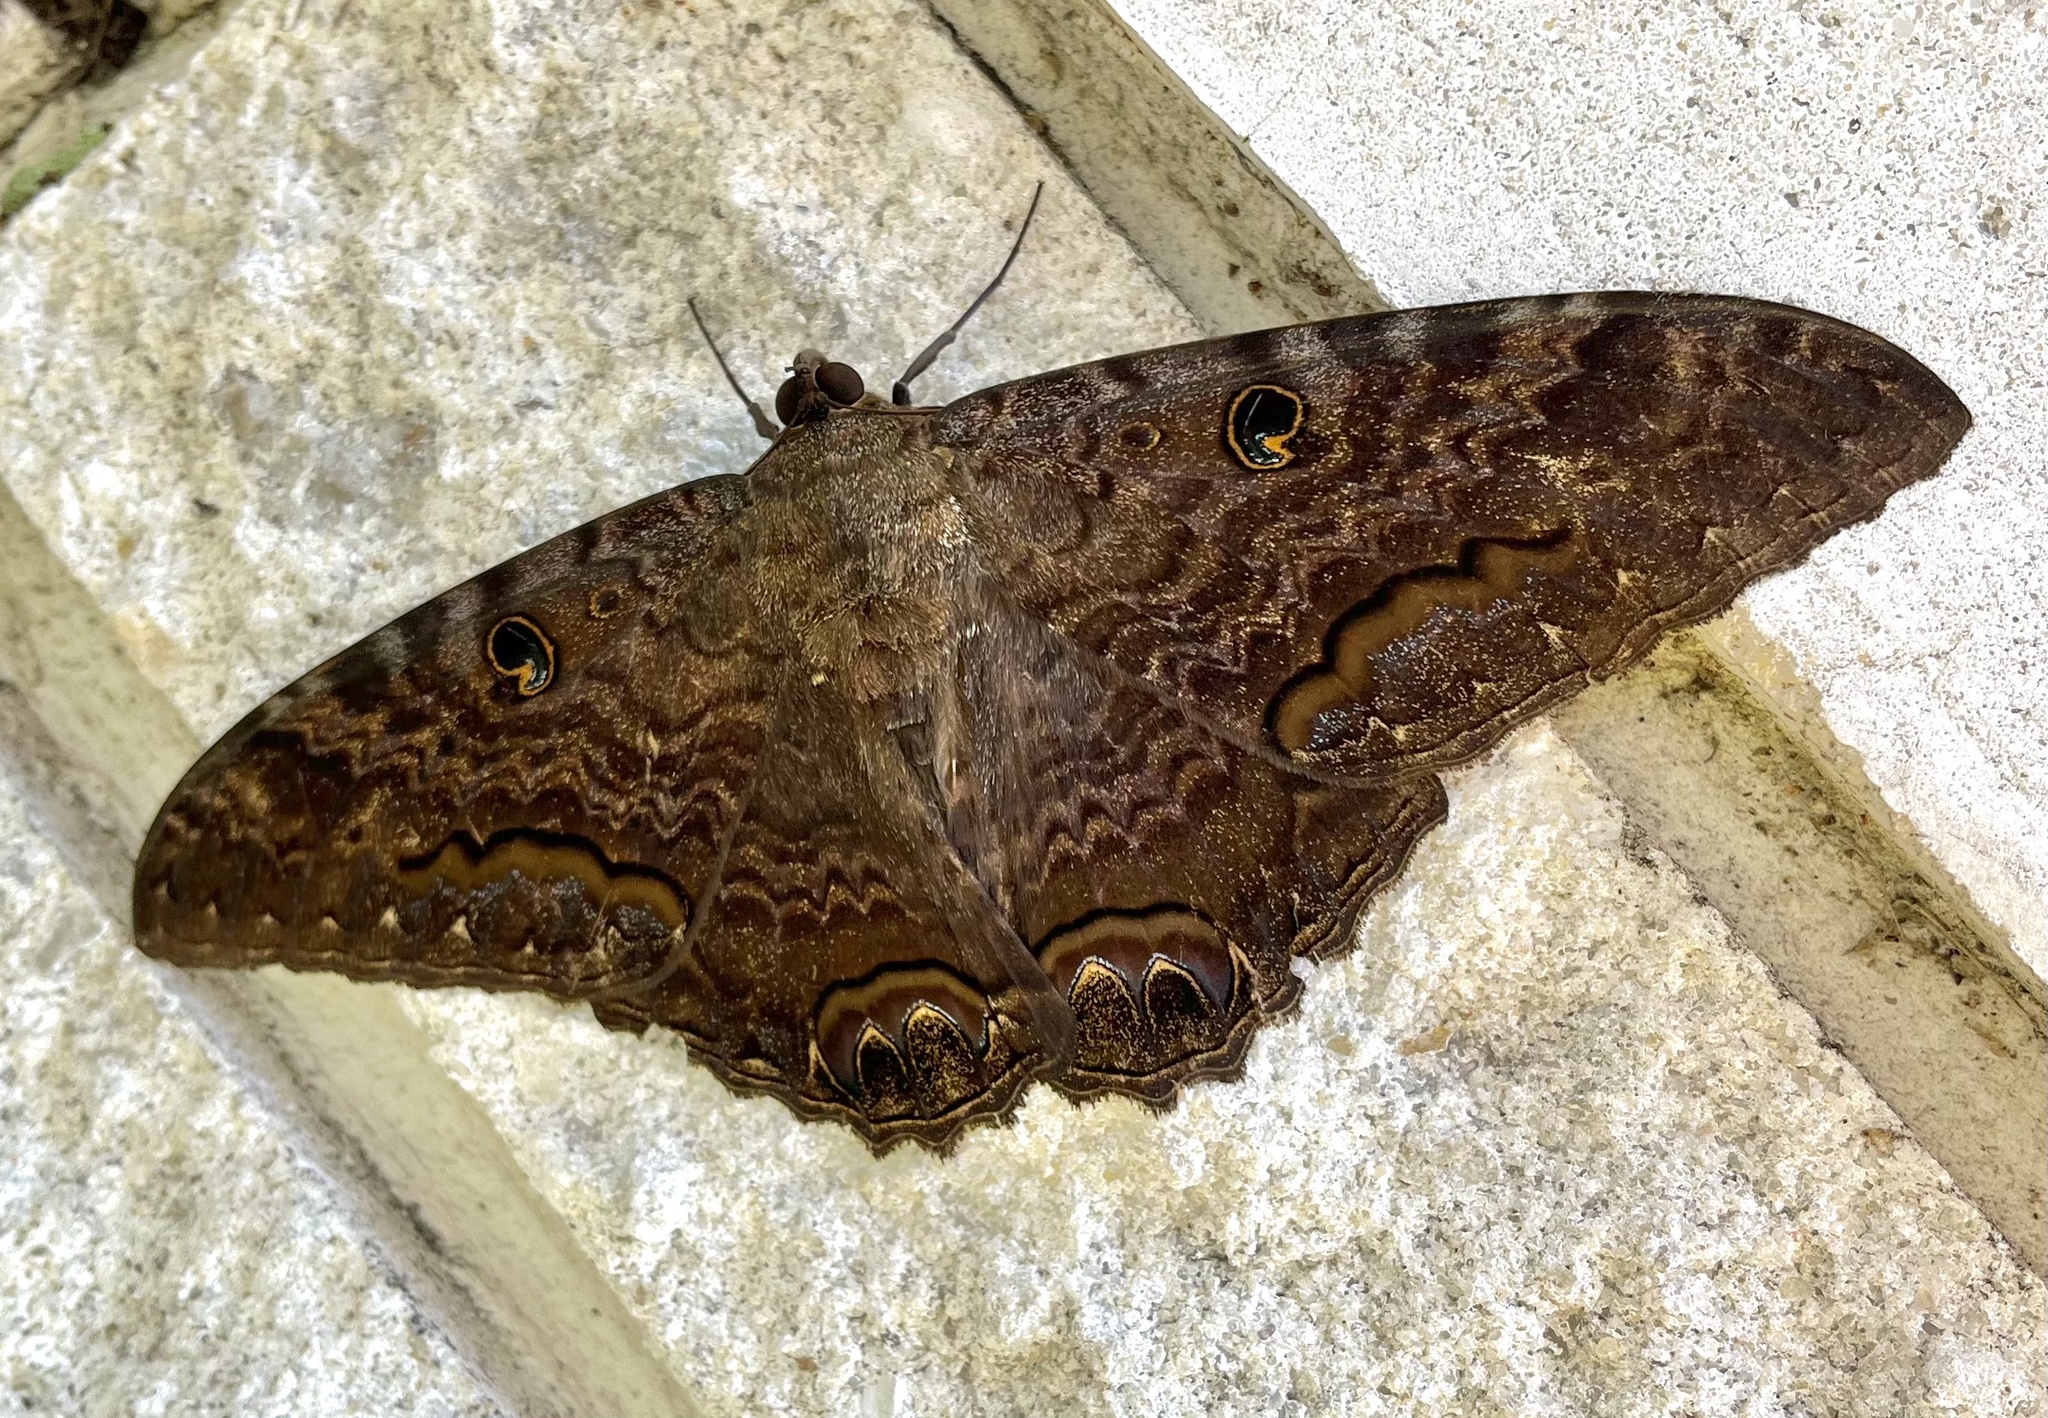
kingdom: Animalia
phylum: Arthropoda
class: Insecta
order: Lepidoptera
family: Erebidae
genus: Ascalapha
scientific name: Ascalapha odorata
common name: Black witch
